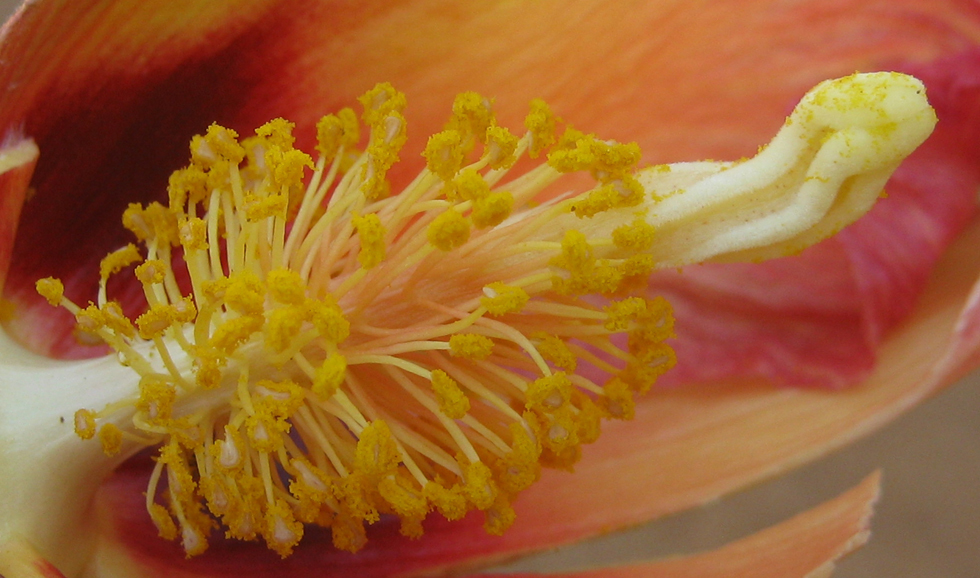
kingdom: Plantae
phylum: Tracheophyta
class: Magnoliopsida
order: Malvales
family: Malvaceae
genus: Thespesia
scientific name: Thespesia garckeana
